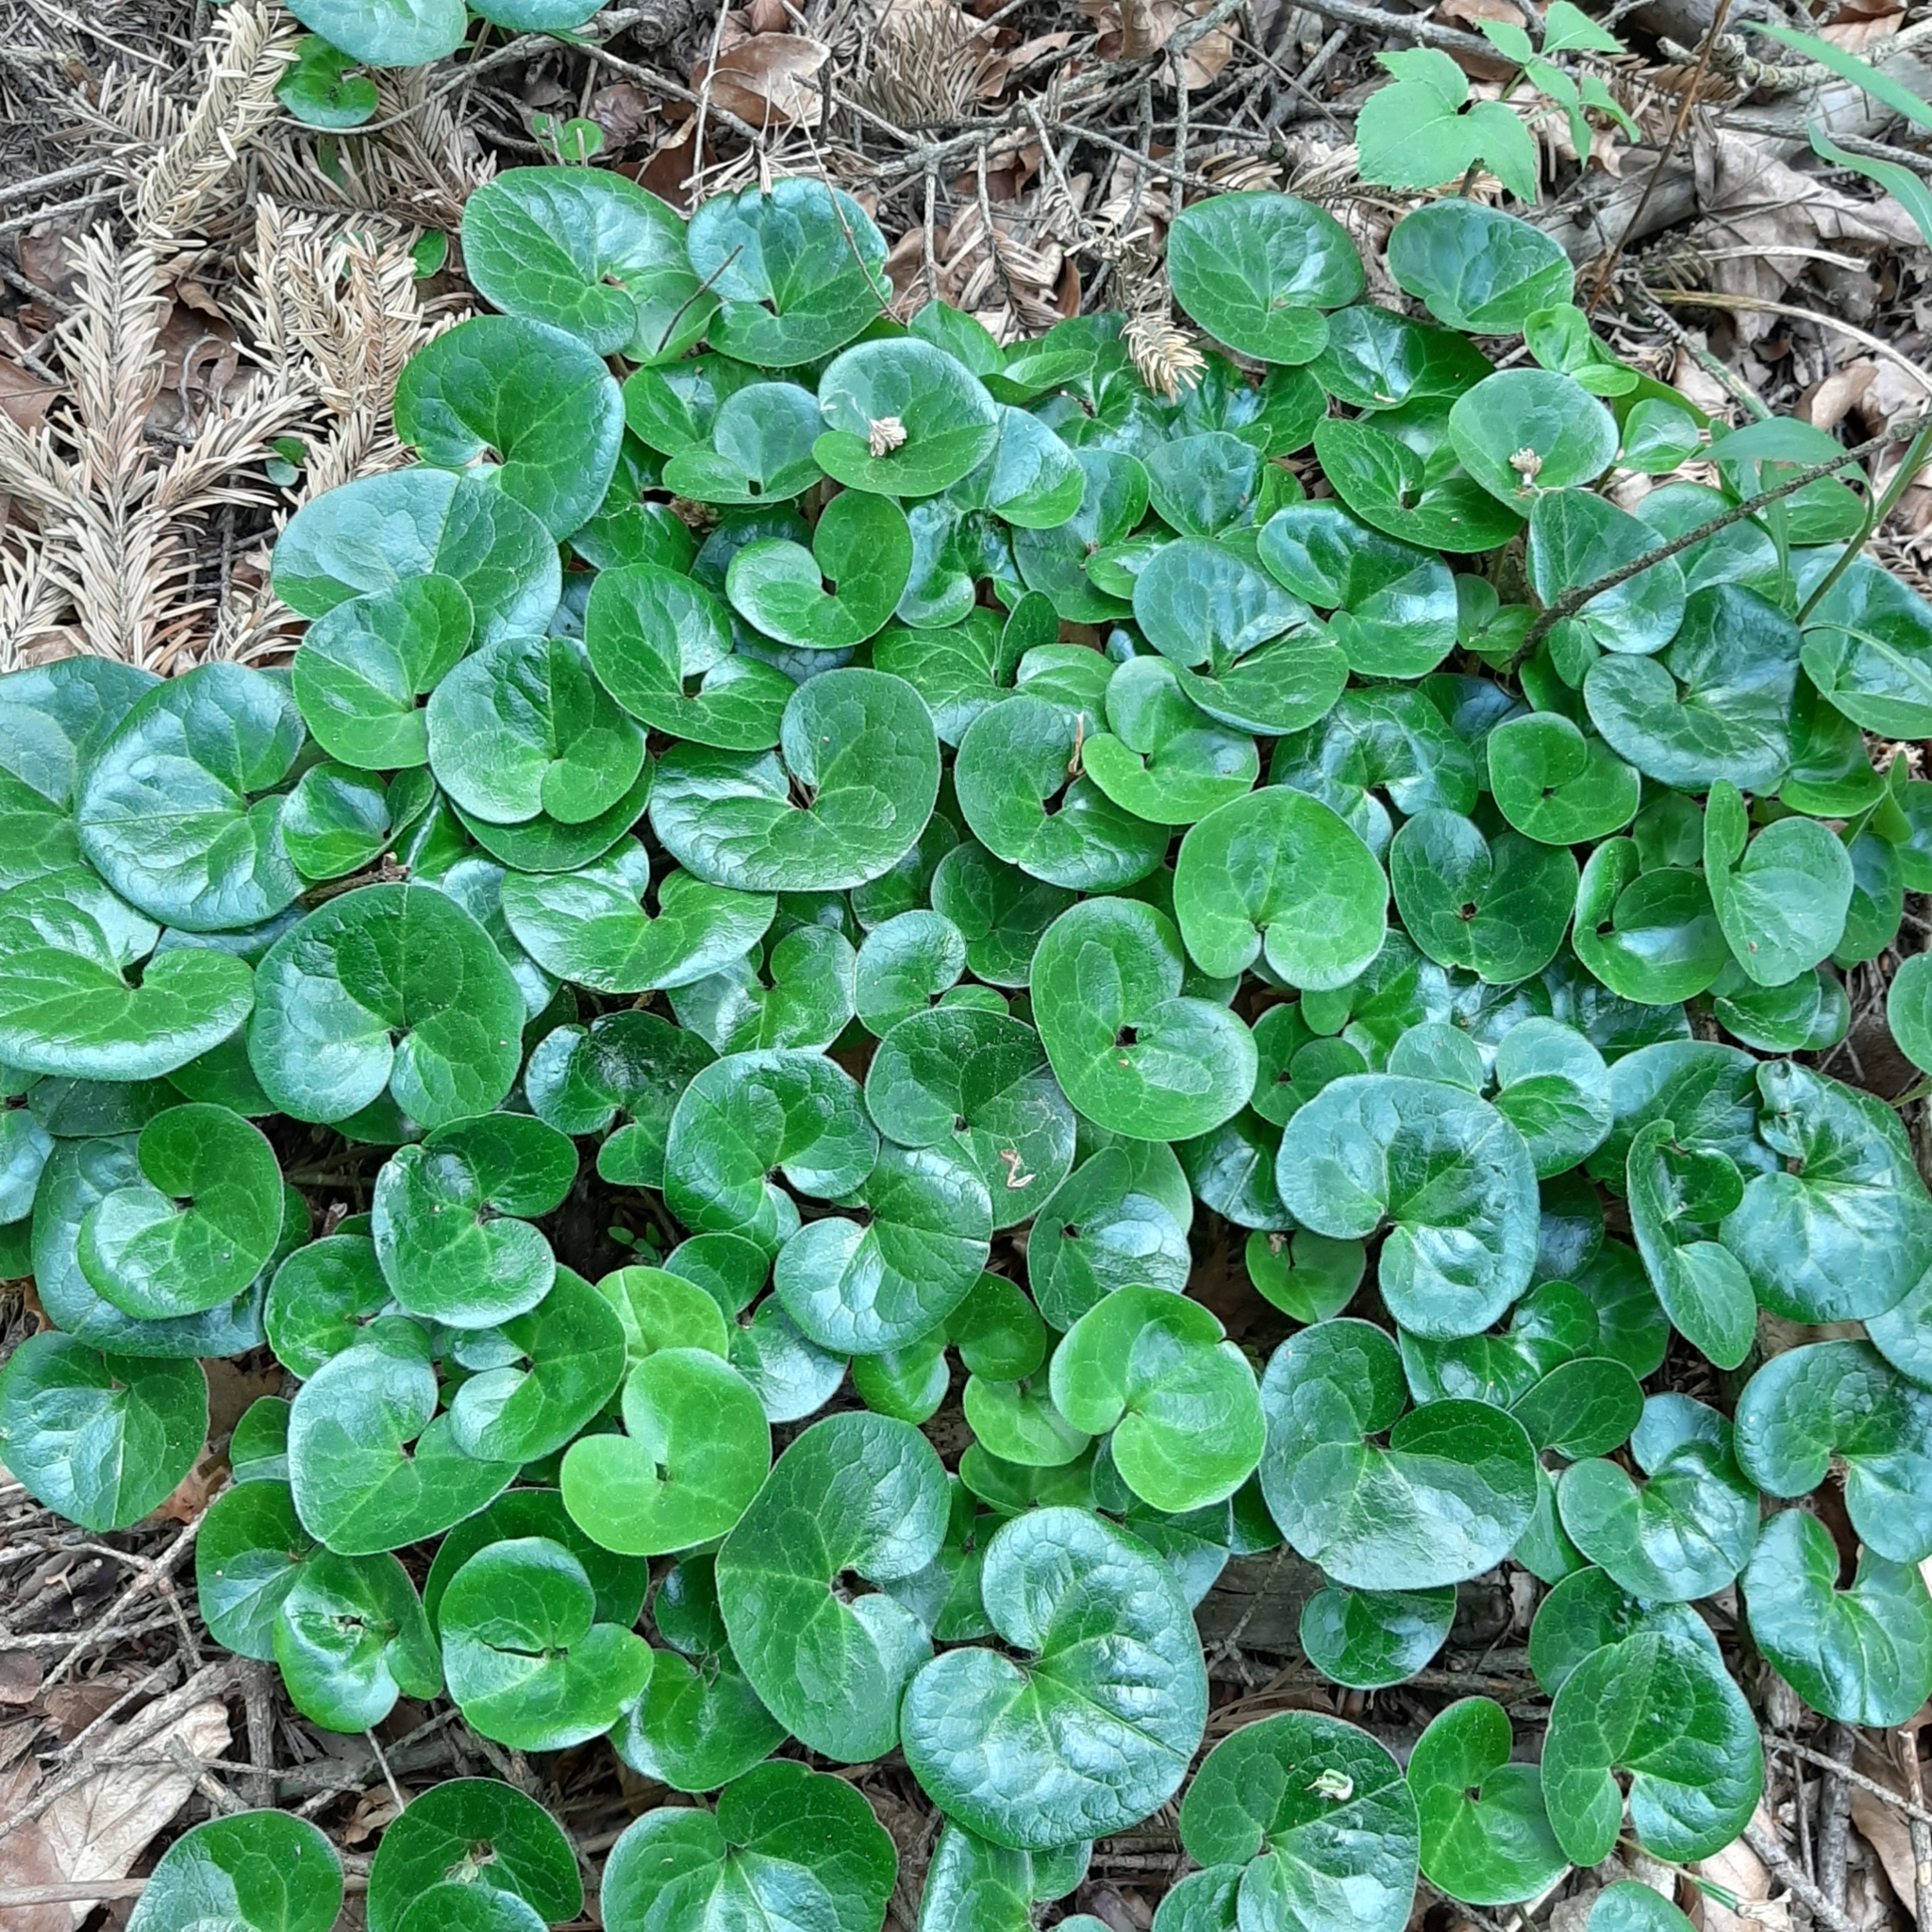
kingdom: Plantae
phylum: Tracheophyta
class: Magnoliopsida
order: Piperales
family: Aristolochiaceae
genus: Asarum
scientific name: Asarum europaeum
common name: Asarabacca
